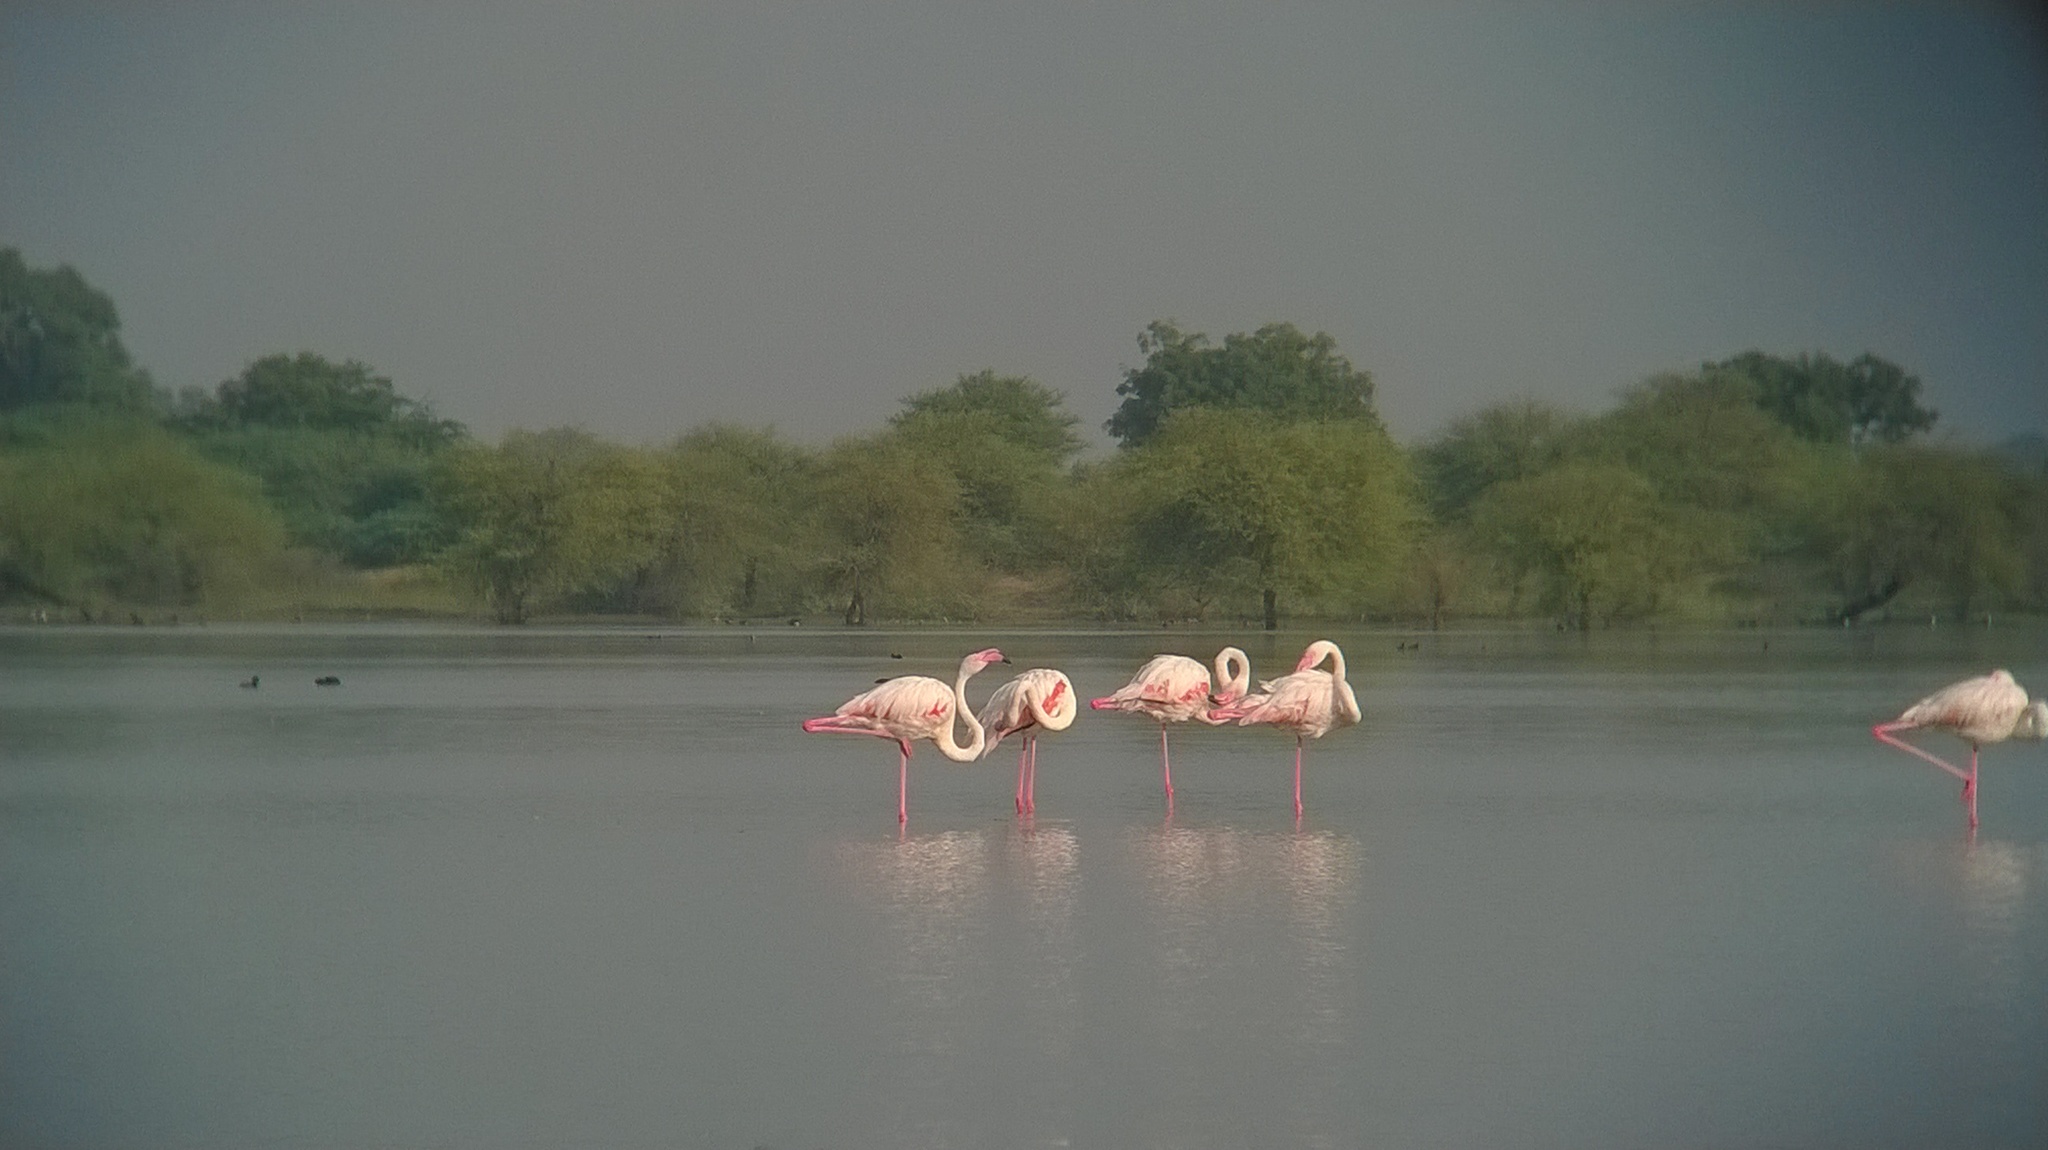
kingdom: Animalia
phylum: Chordata
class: Aves
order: Phoenicopteriformes
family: Phoenicopteridae
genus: Phoenicopterus
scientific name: Phoenicopterus roseus
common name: Greater flamingo
